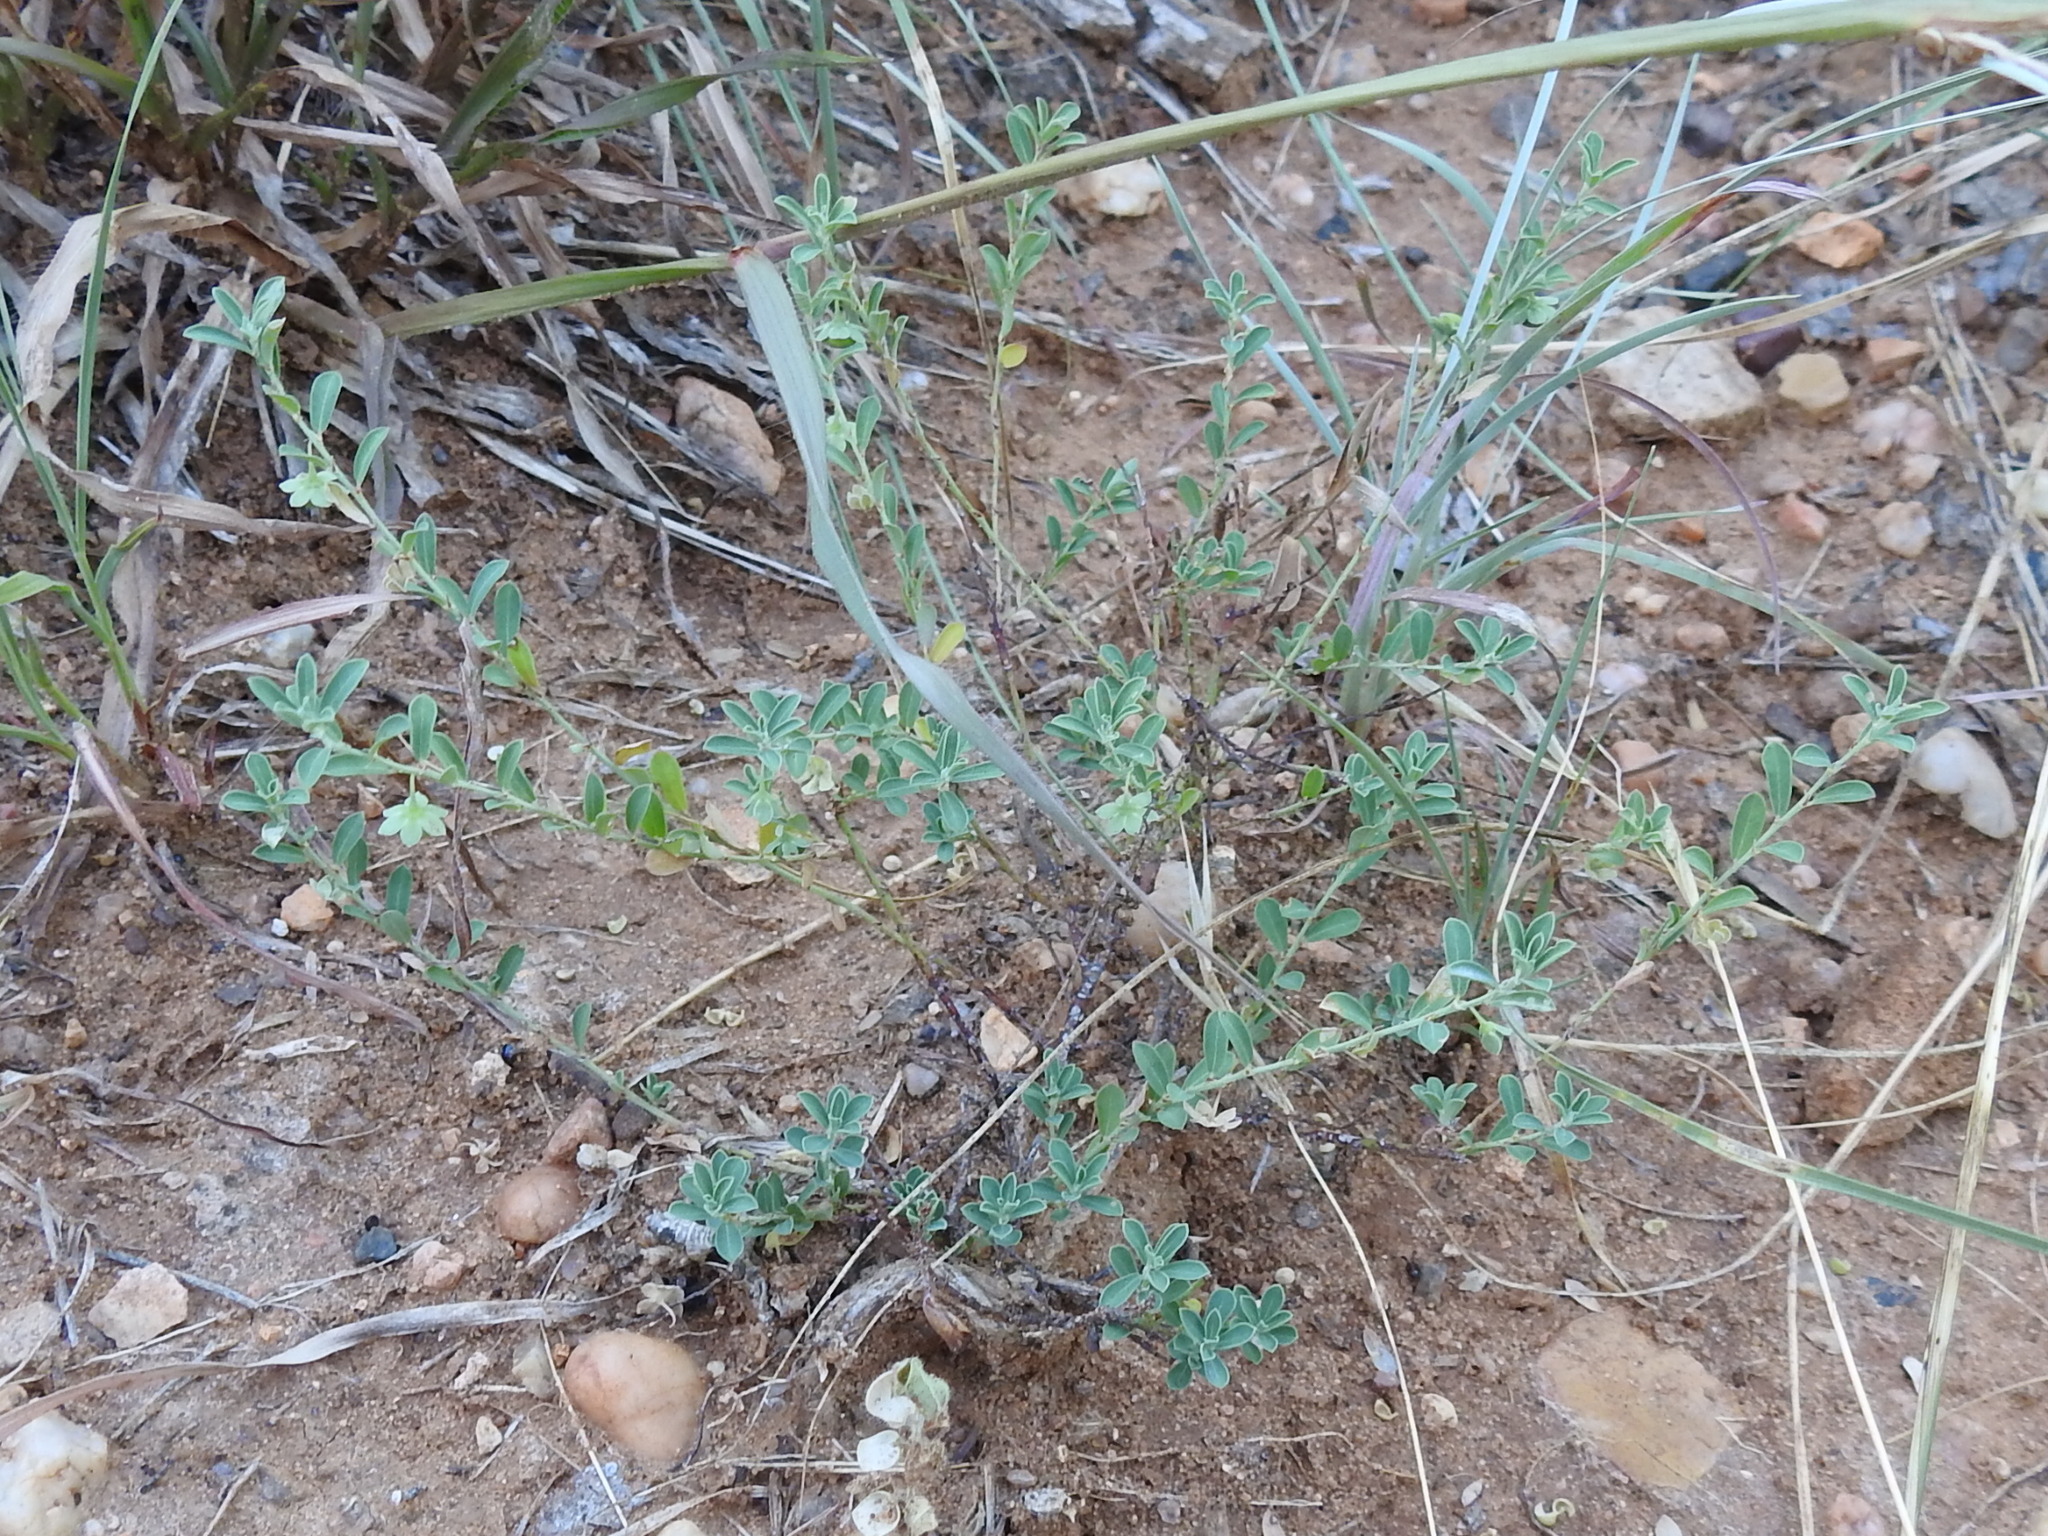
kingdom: Plantae
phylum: Tracheophyta
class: Magnoliopsida
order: Malpighiales
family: Phyllanthaceae
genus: Phyllanthus
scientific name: Phyllanthus polygonoides
